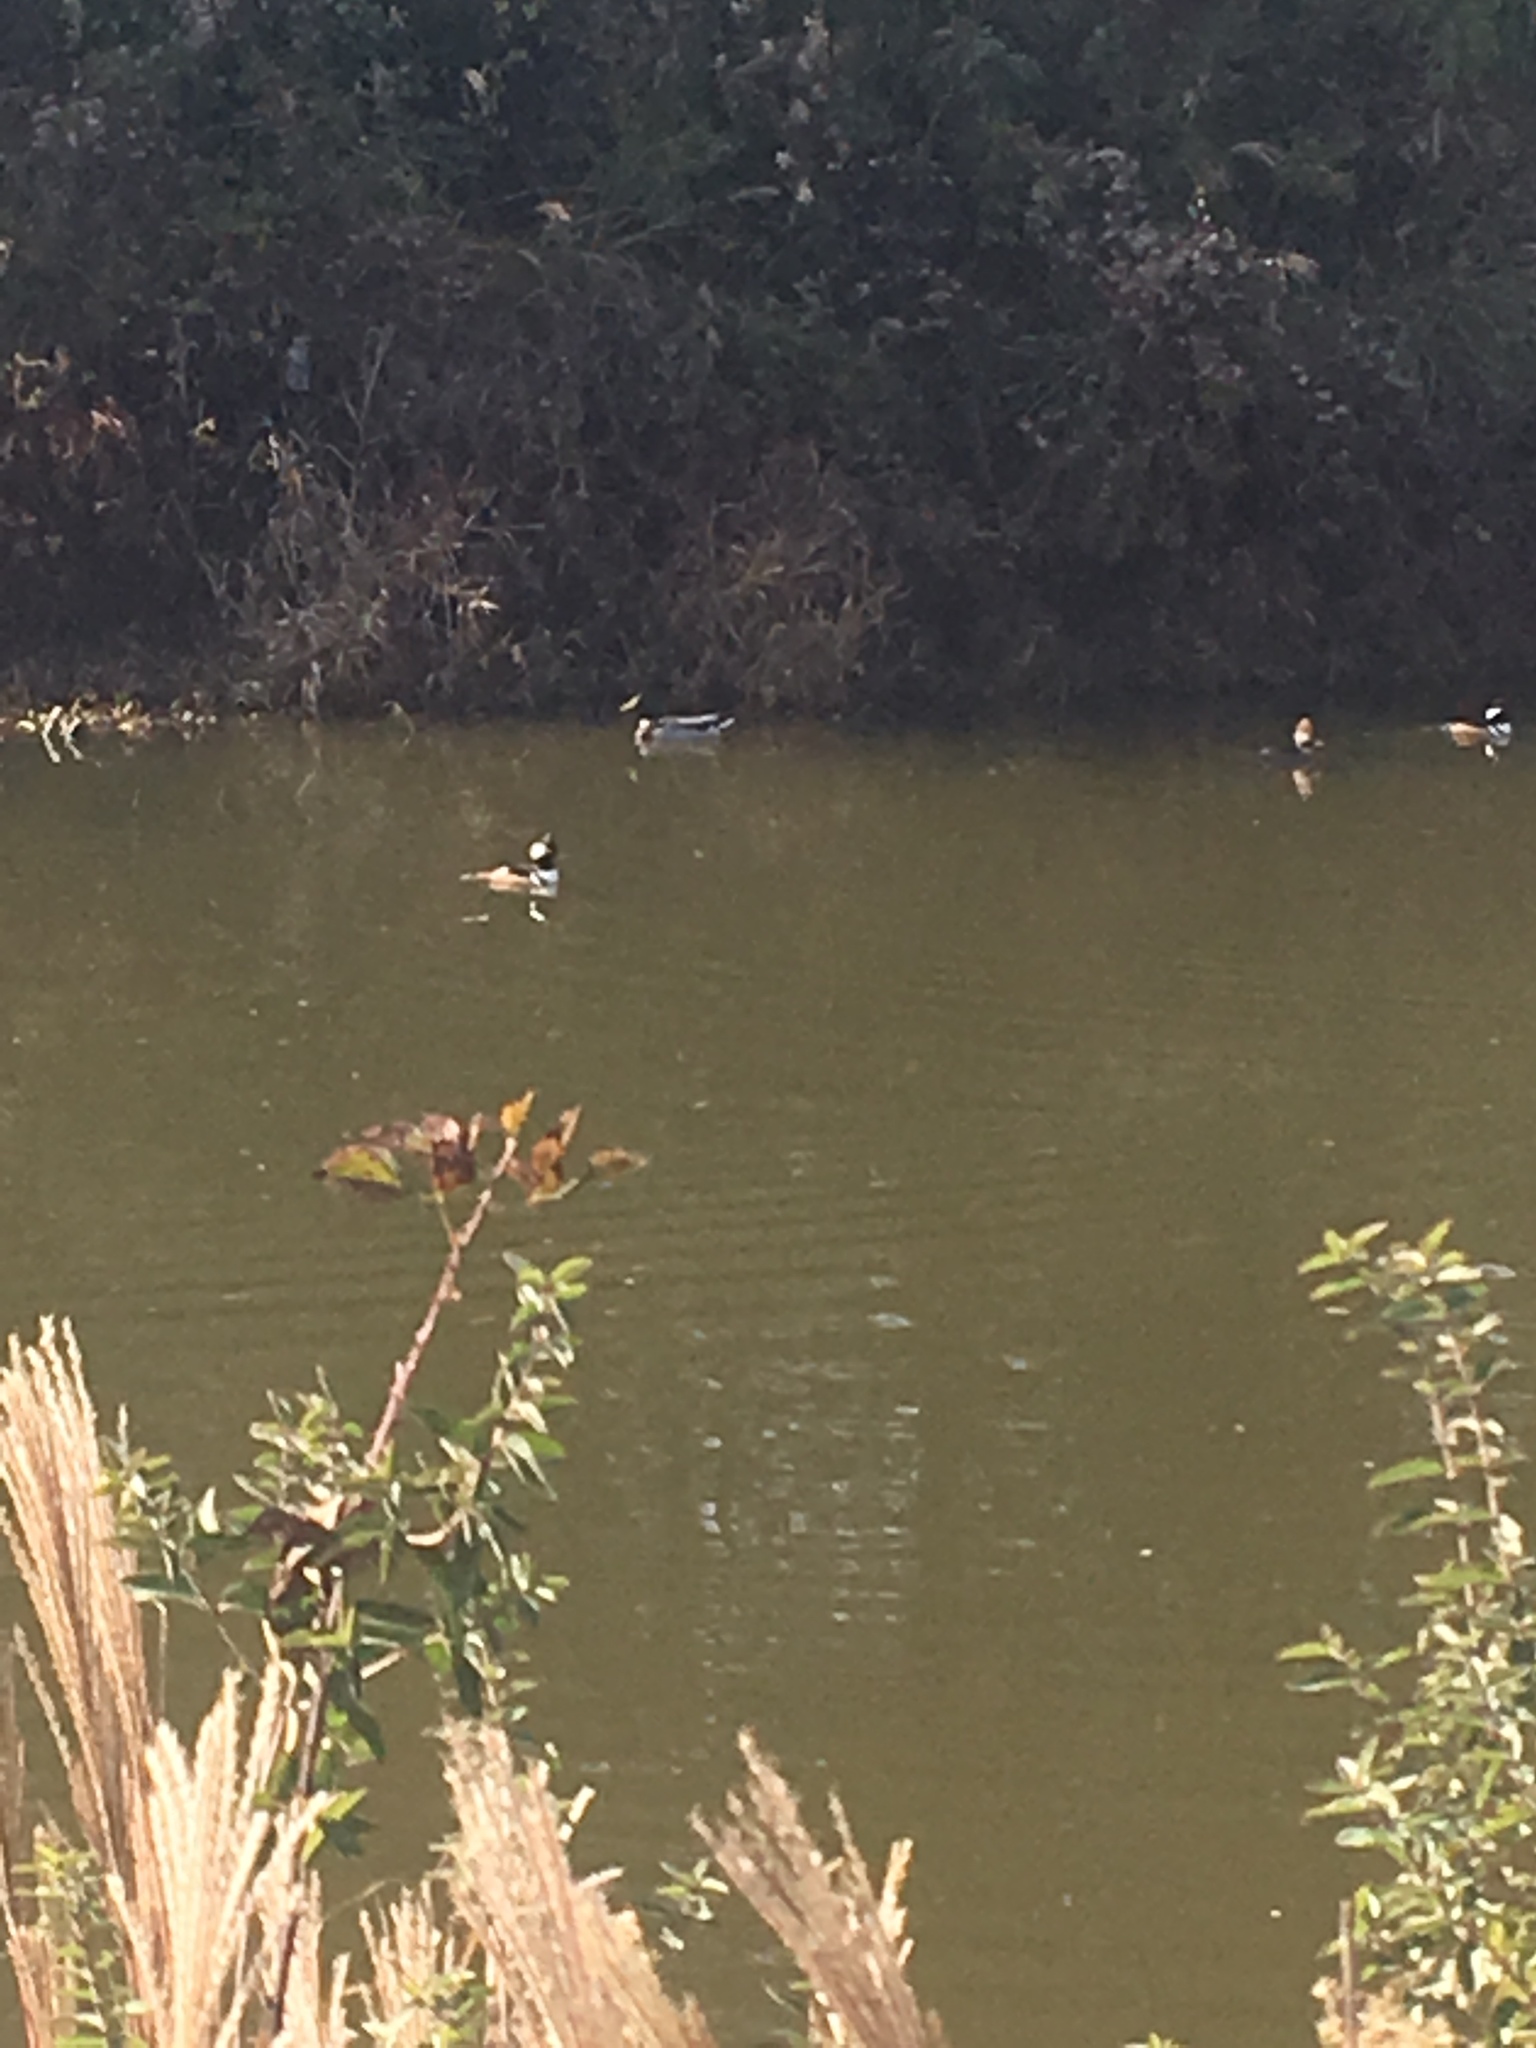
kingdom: Animalia
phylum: Chordata
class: Aves
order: Anseriformes
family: Anatidae
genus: Lophodytes
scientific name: Lophodytes cucullatus
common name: Hooded merganser
